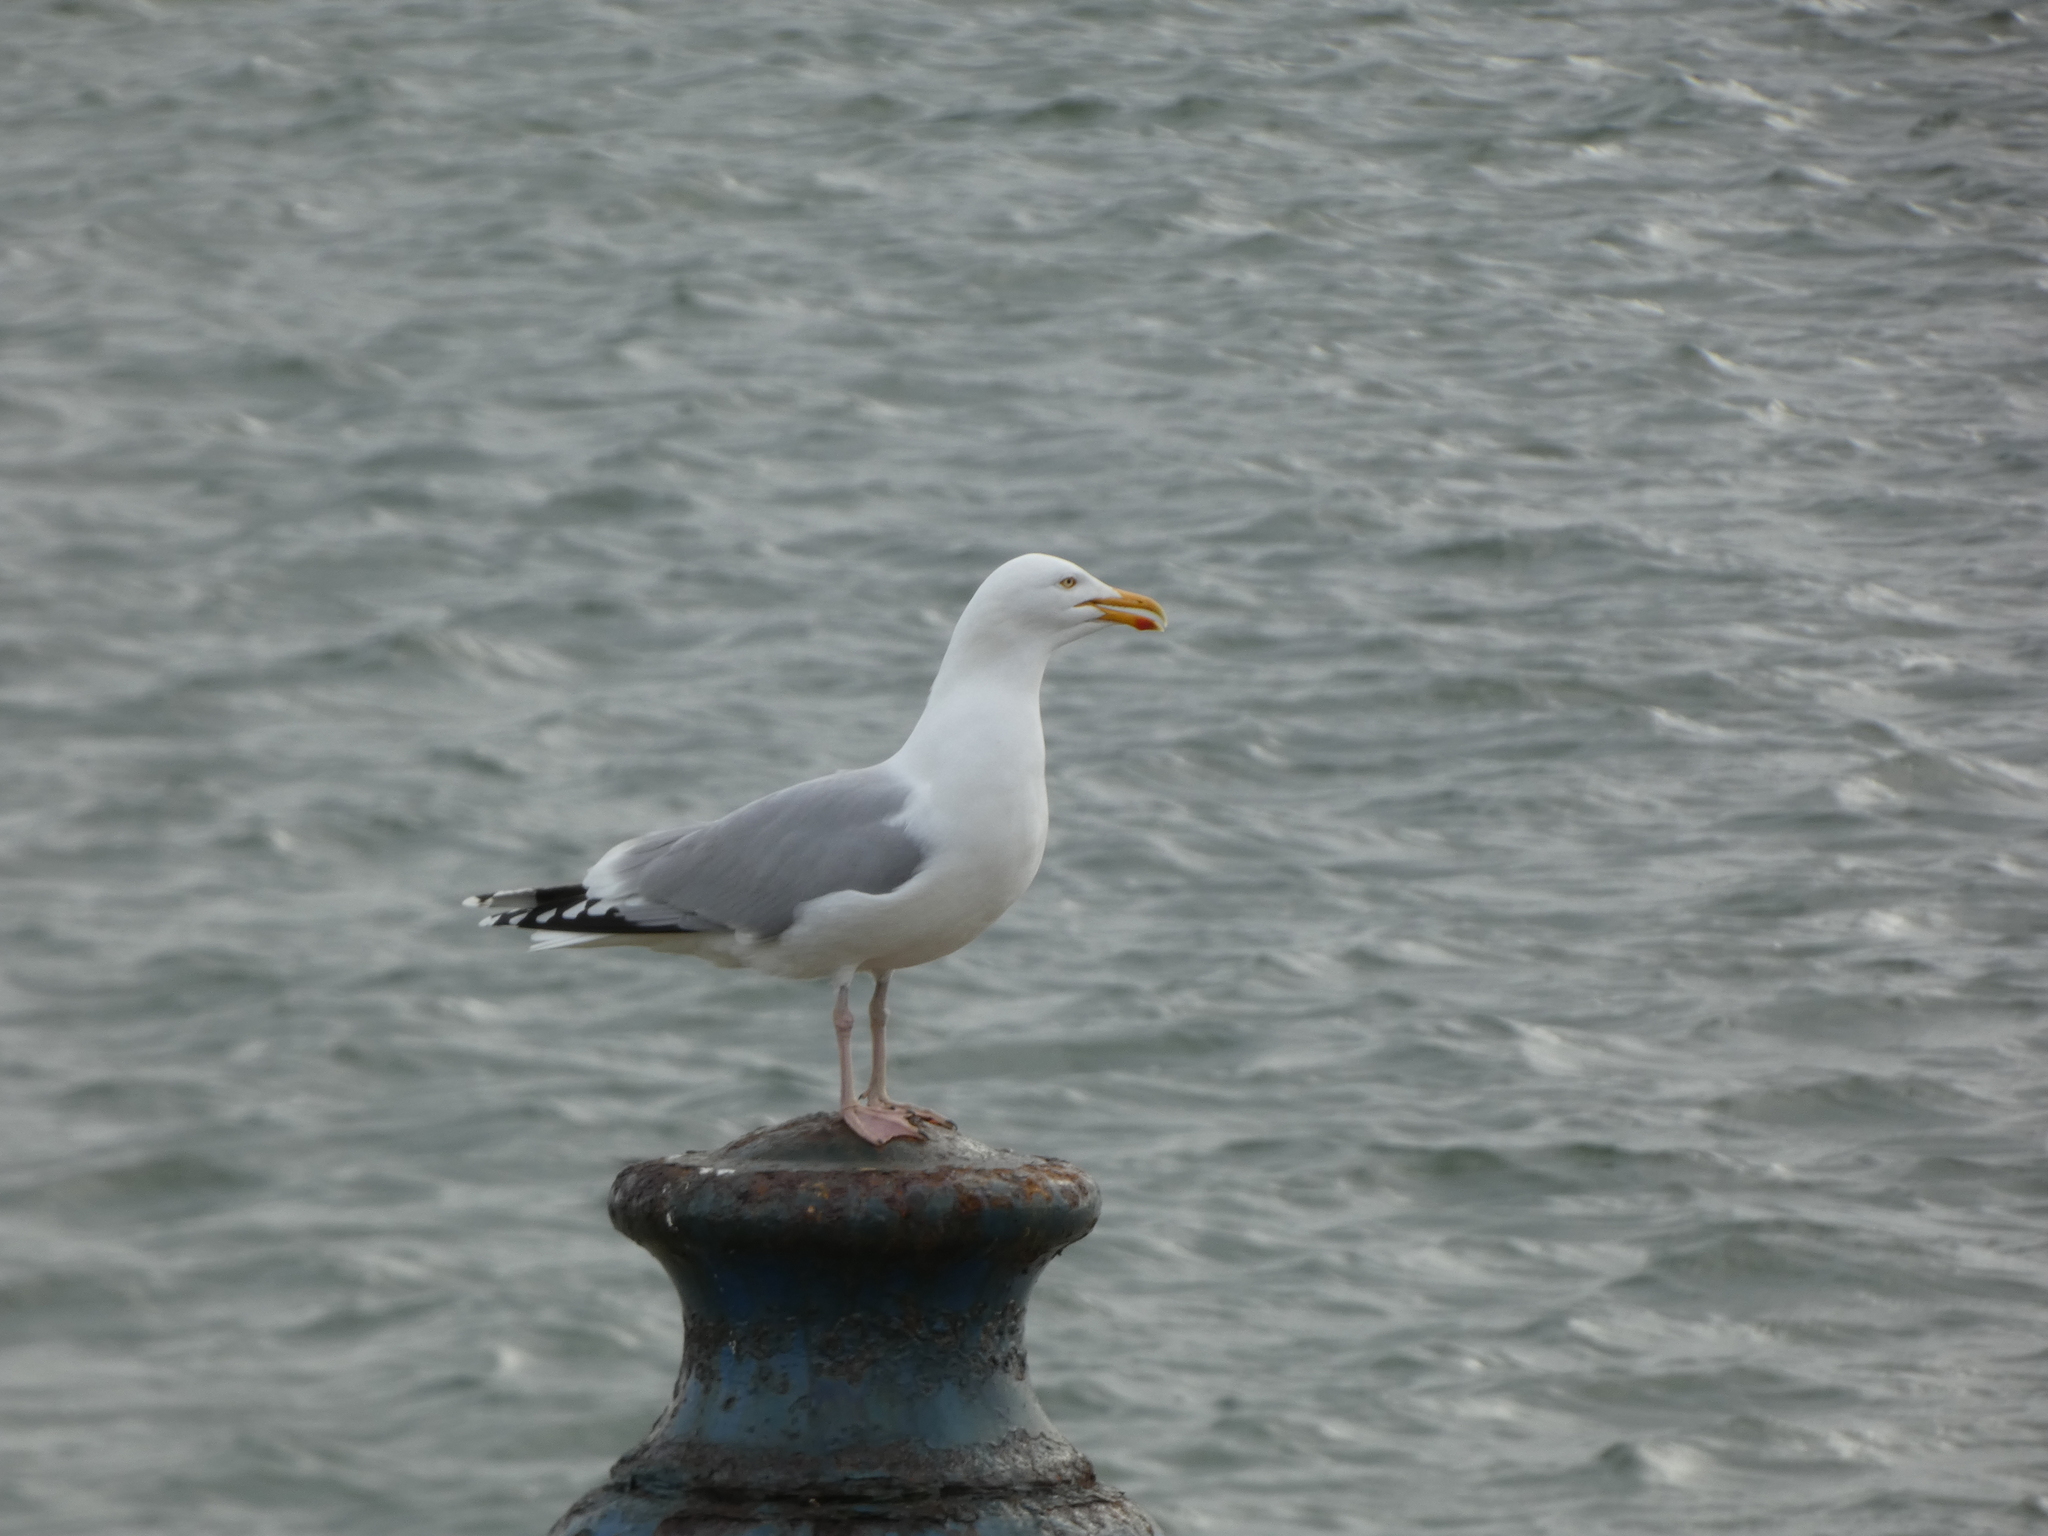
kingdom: Animalia
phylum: Chordata
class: Aves
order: Charadriiformes
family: Laridae
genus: Larus
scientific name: Larus argentatus
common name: Herring gull
